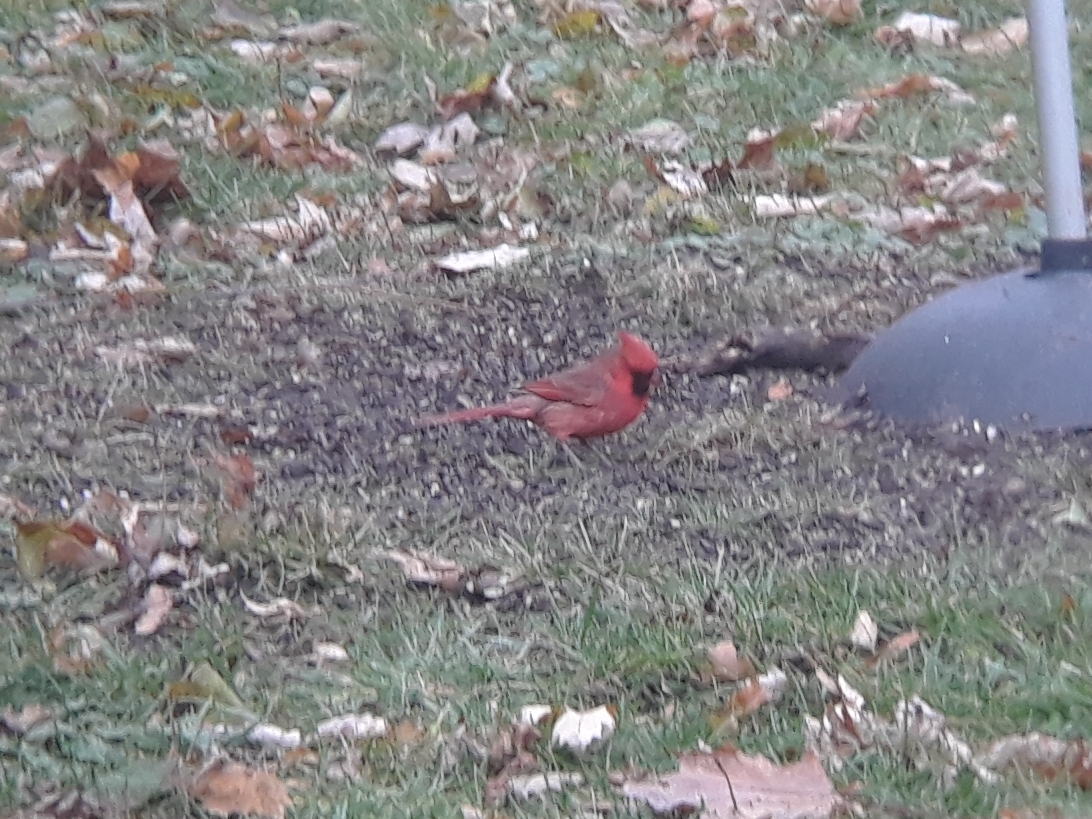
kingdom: Animalia
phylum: Chordata
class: Aves
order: Passeriformes
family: Cardinalidae
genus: Cardinalis
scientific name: Cardinalis cardinalis
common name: Northern cardinal
